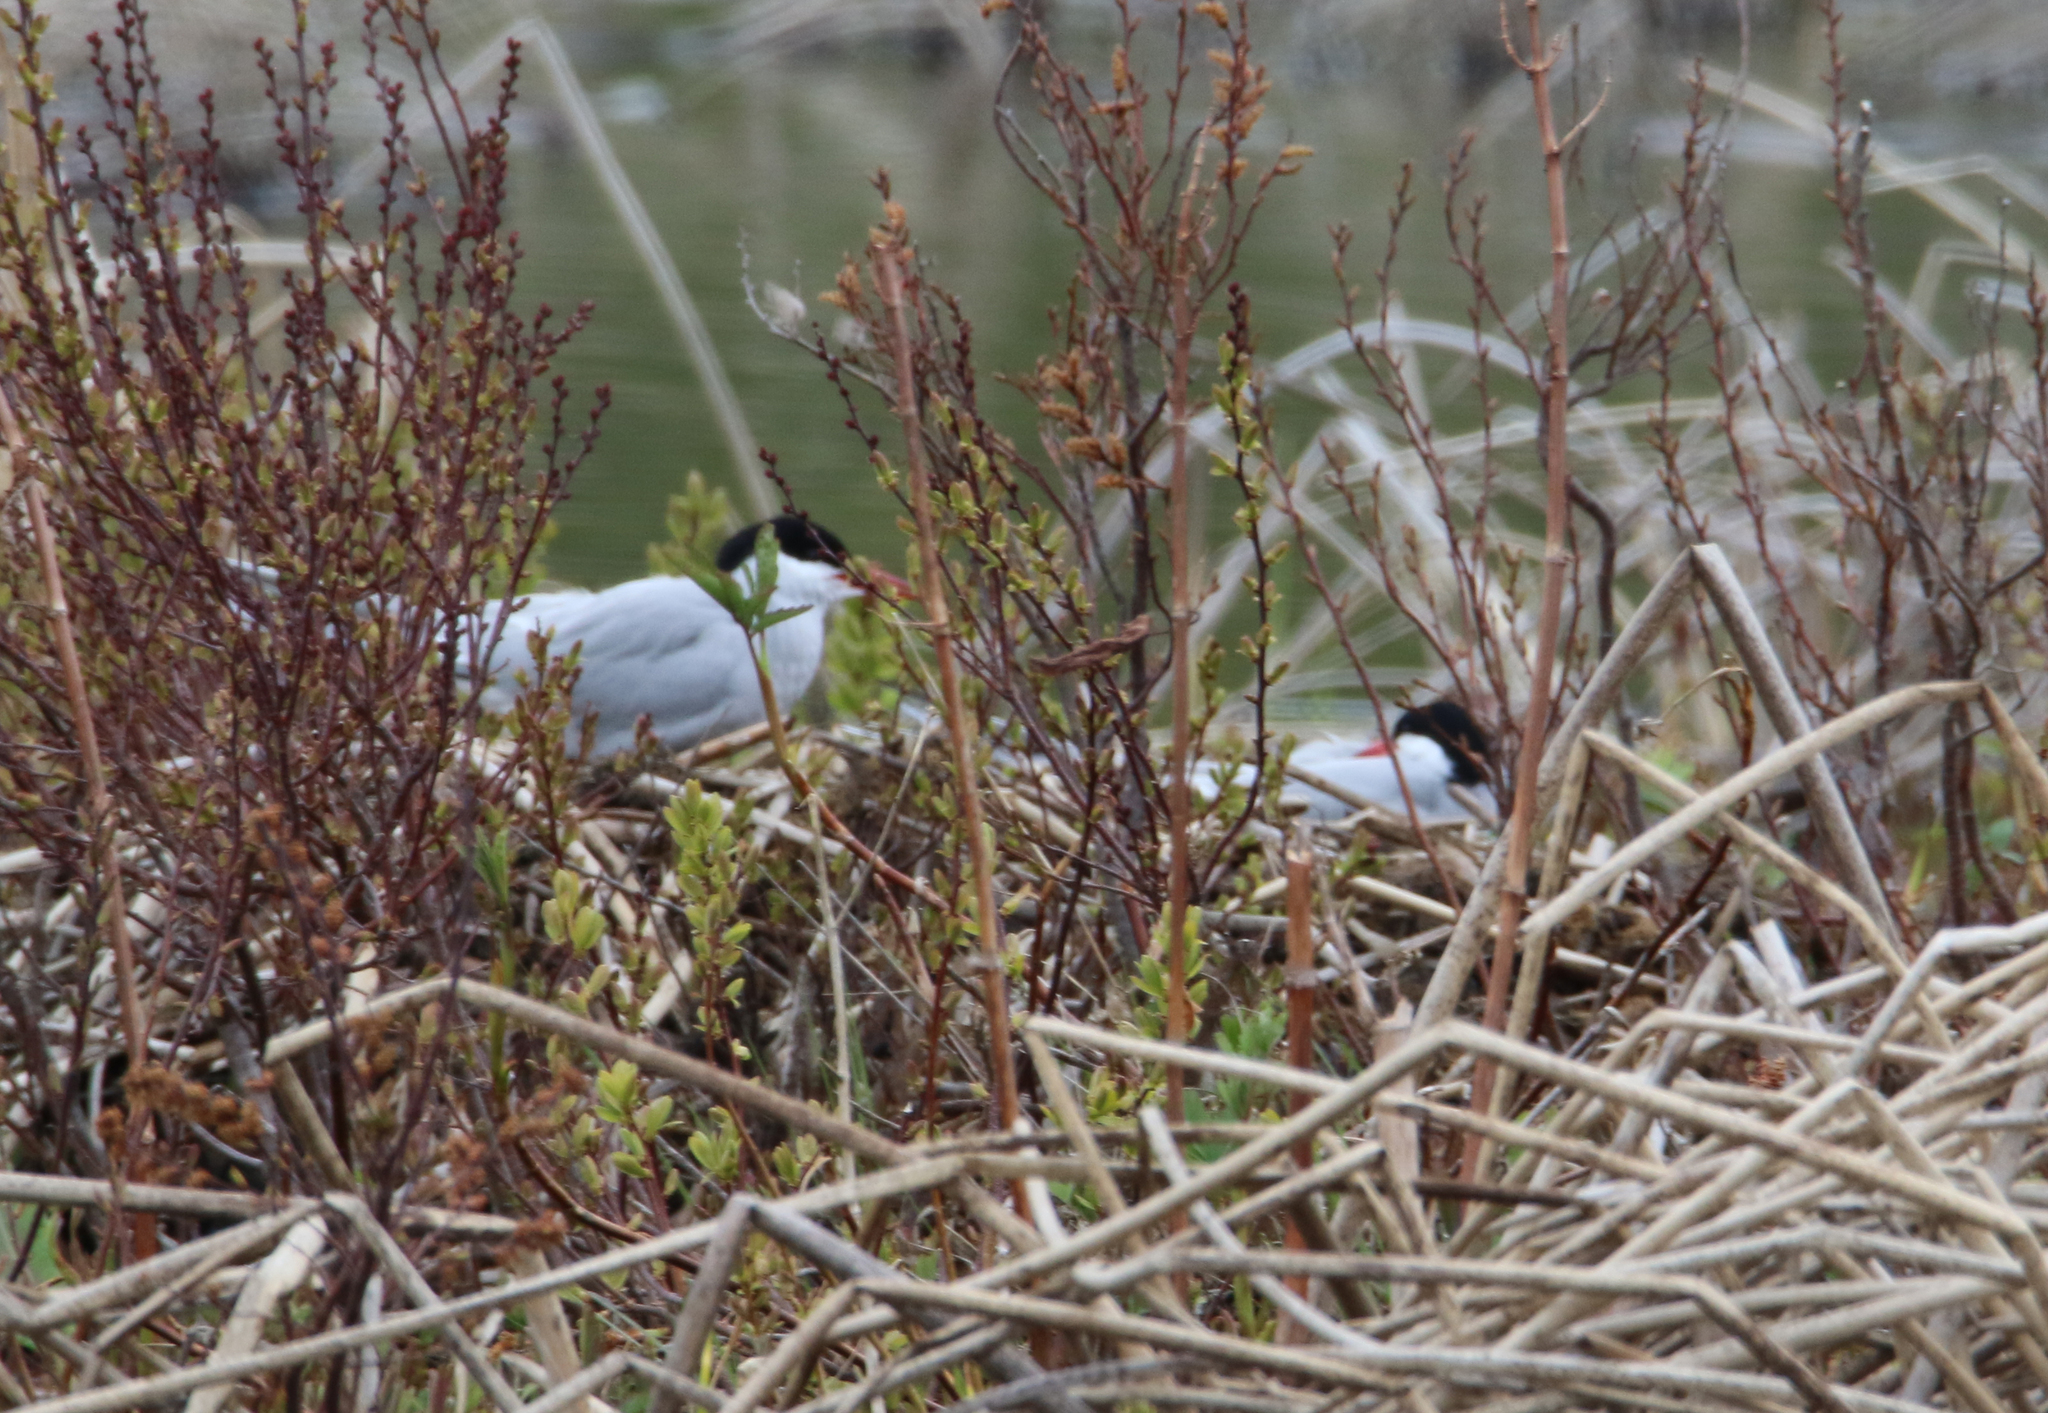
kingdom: Animalia
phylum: Chordata
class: Aves
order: Charadriiformes
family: Laridae
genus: Sterna
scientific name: Sterna paradisaea
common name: Arctic tern
